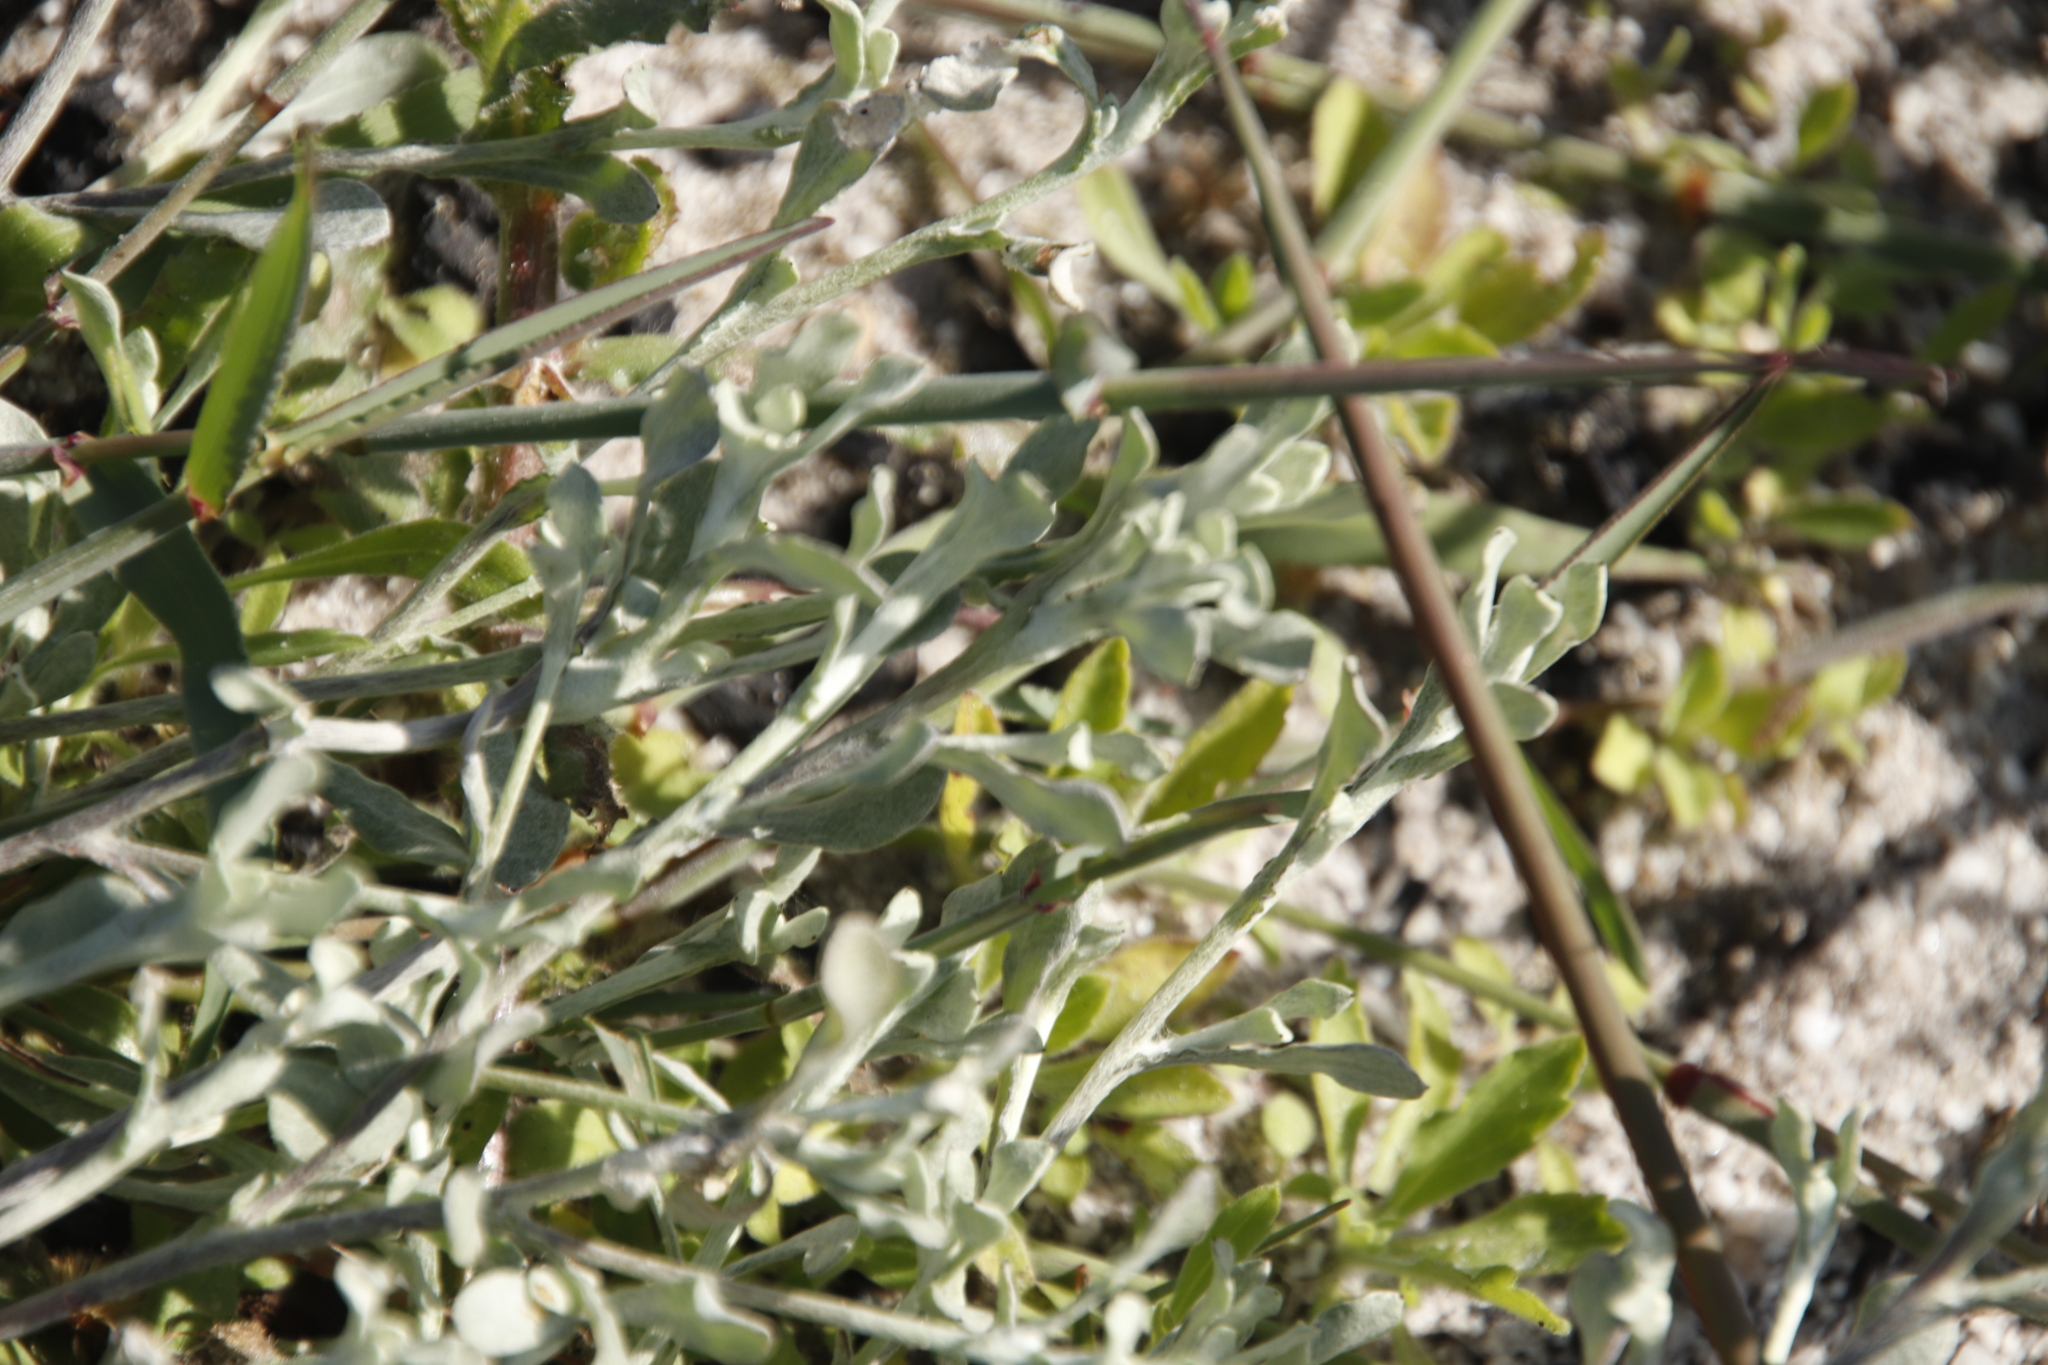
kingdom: Plantae
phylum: Tracheophyta
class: Magnoliopsida
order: Asterales
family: Asteraceae
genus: Helichrysum
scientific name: Helichrysum indicum
